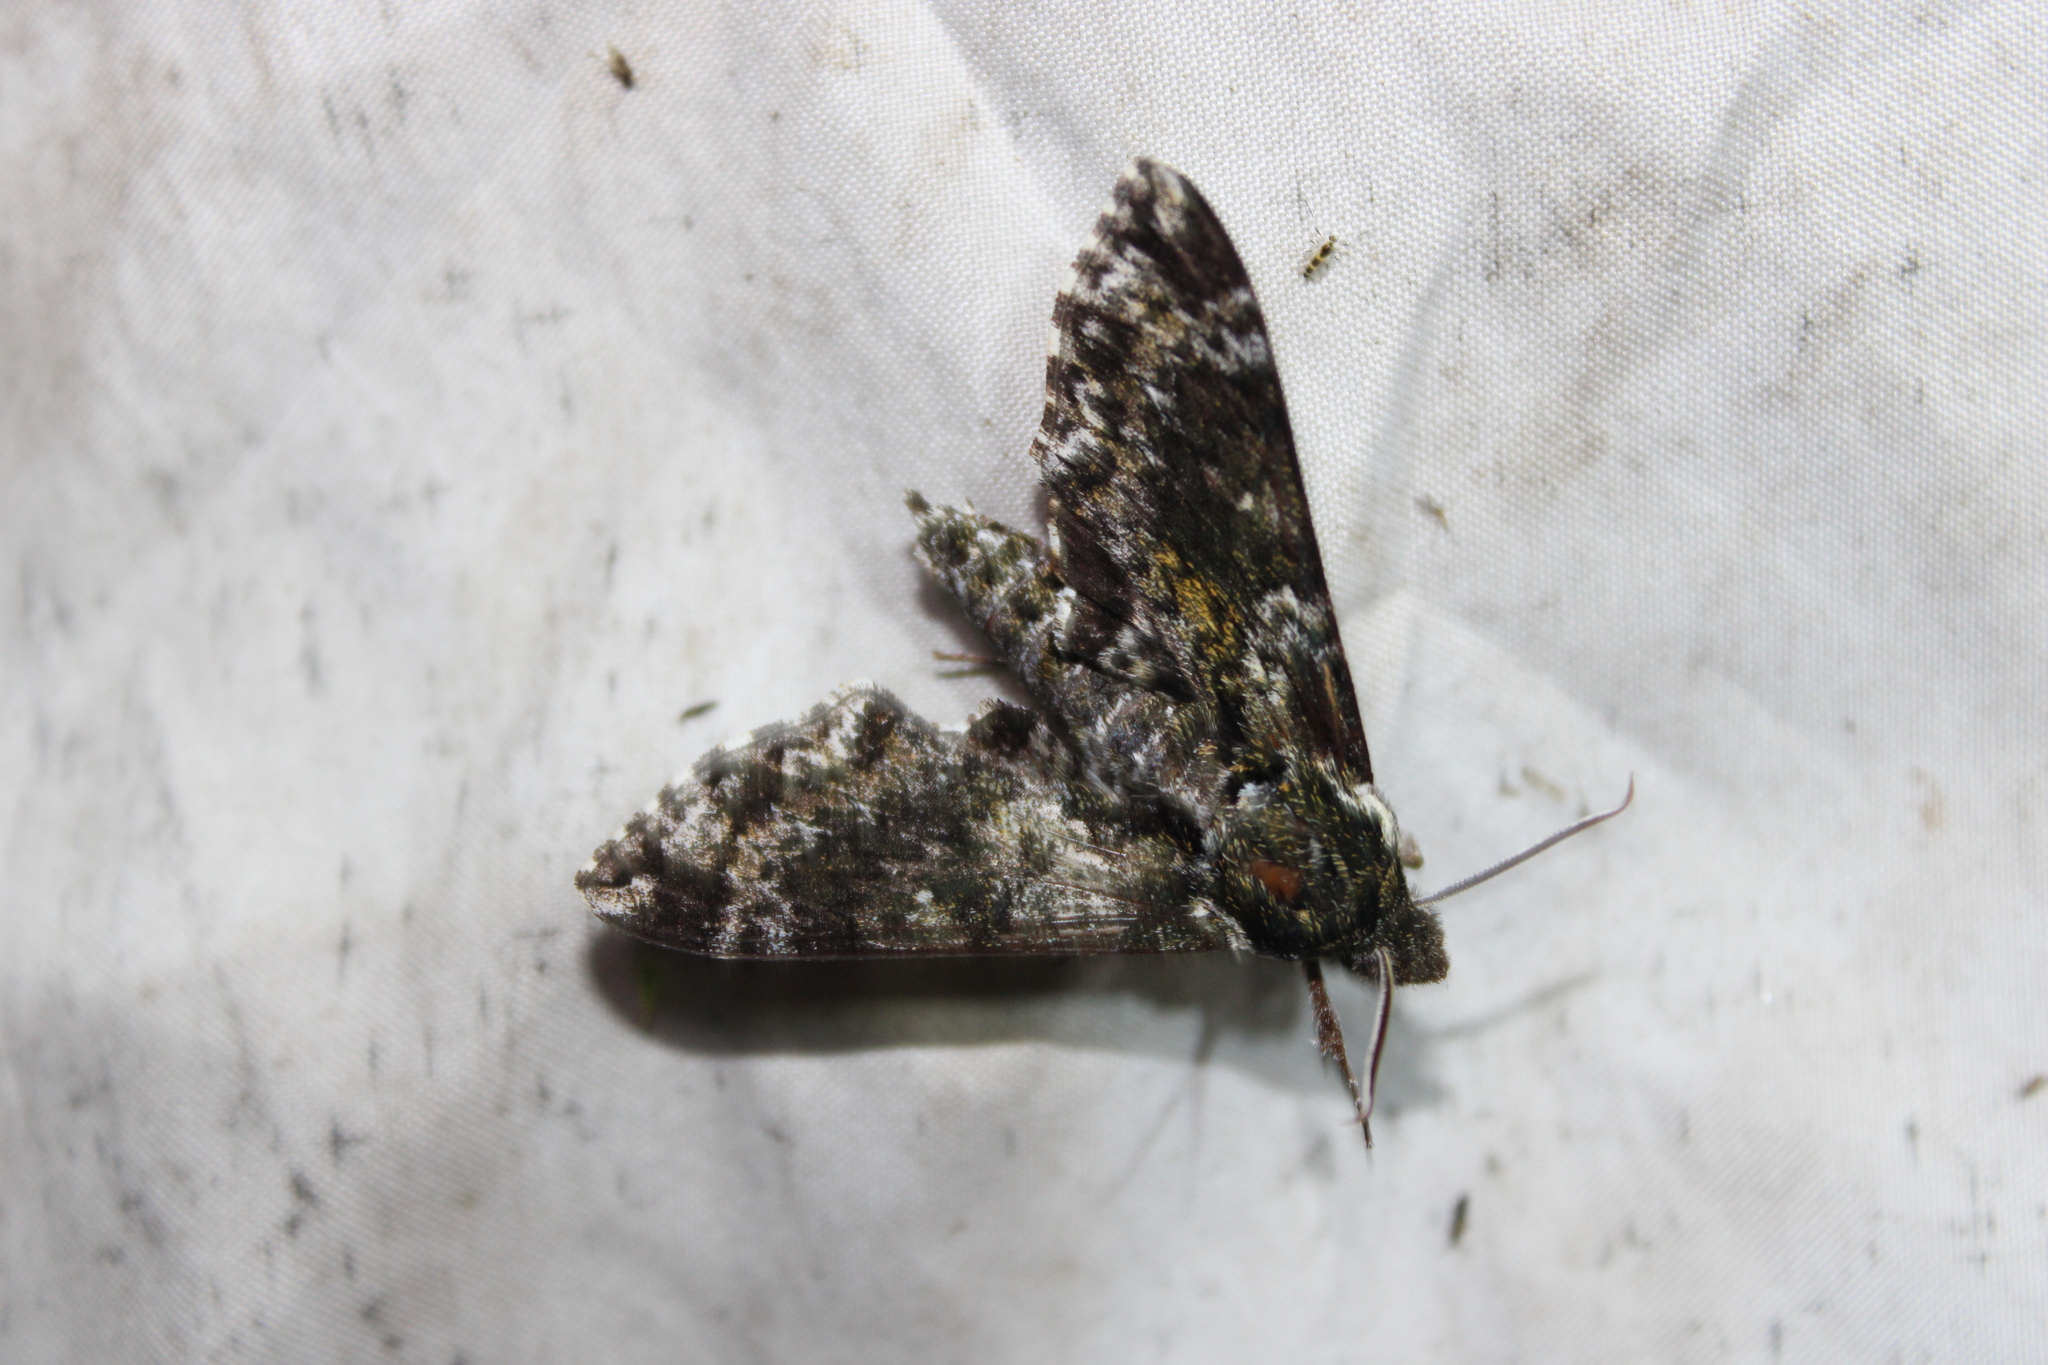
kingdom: Animalia
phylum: Arthropoda
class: Insecta
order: Lepidoptera
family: Sphingidae
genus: Dolba
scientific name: Dolba hyloeus
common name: Pawpaw sphinx
